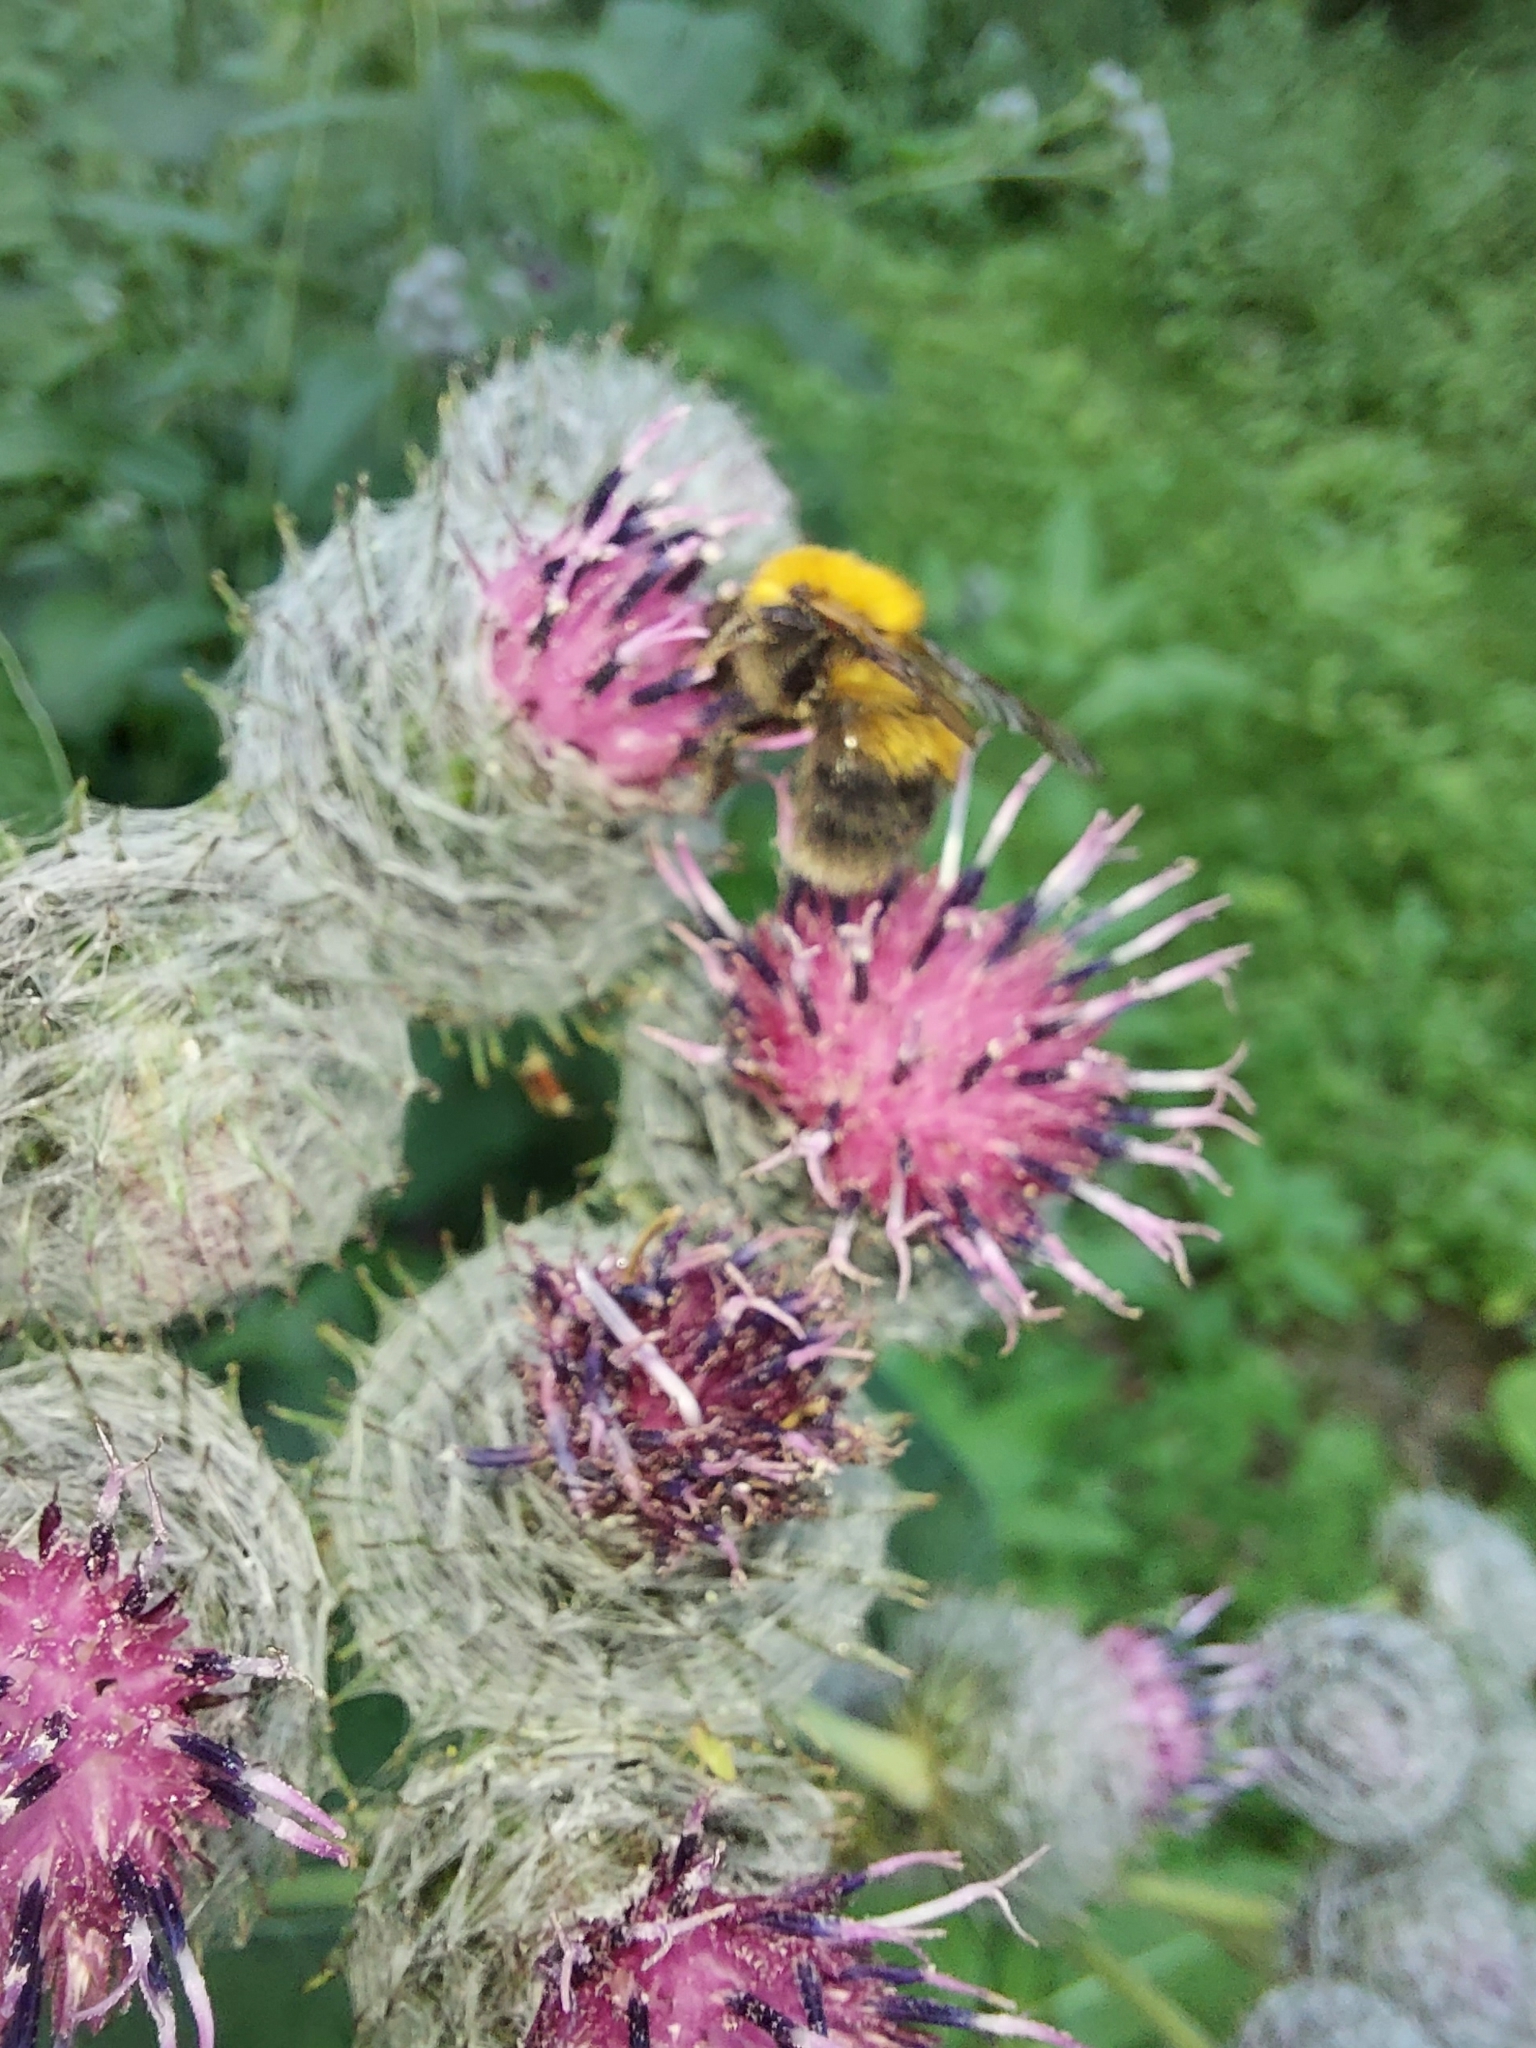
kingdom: Animalia
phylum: Arthropoda
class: Insecta
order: Hymenoptera
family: Apidae
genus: Bombus
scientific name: Bombus hypnorum
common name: New garden bumblebee
